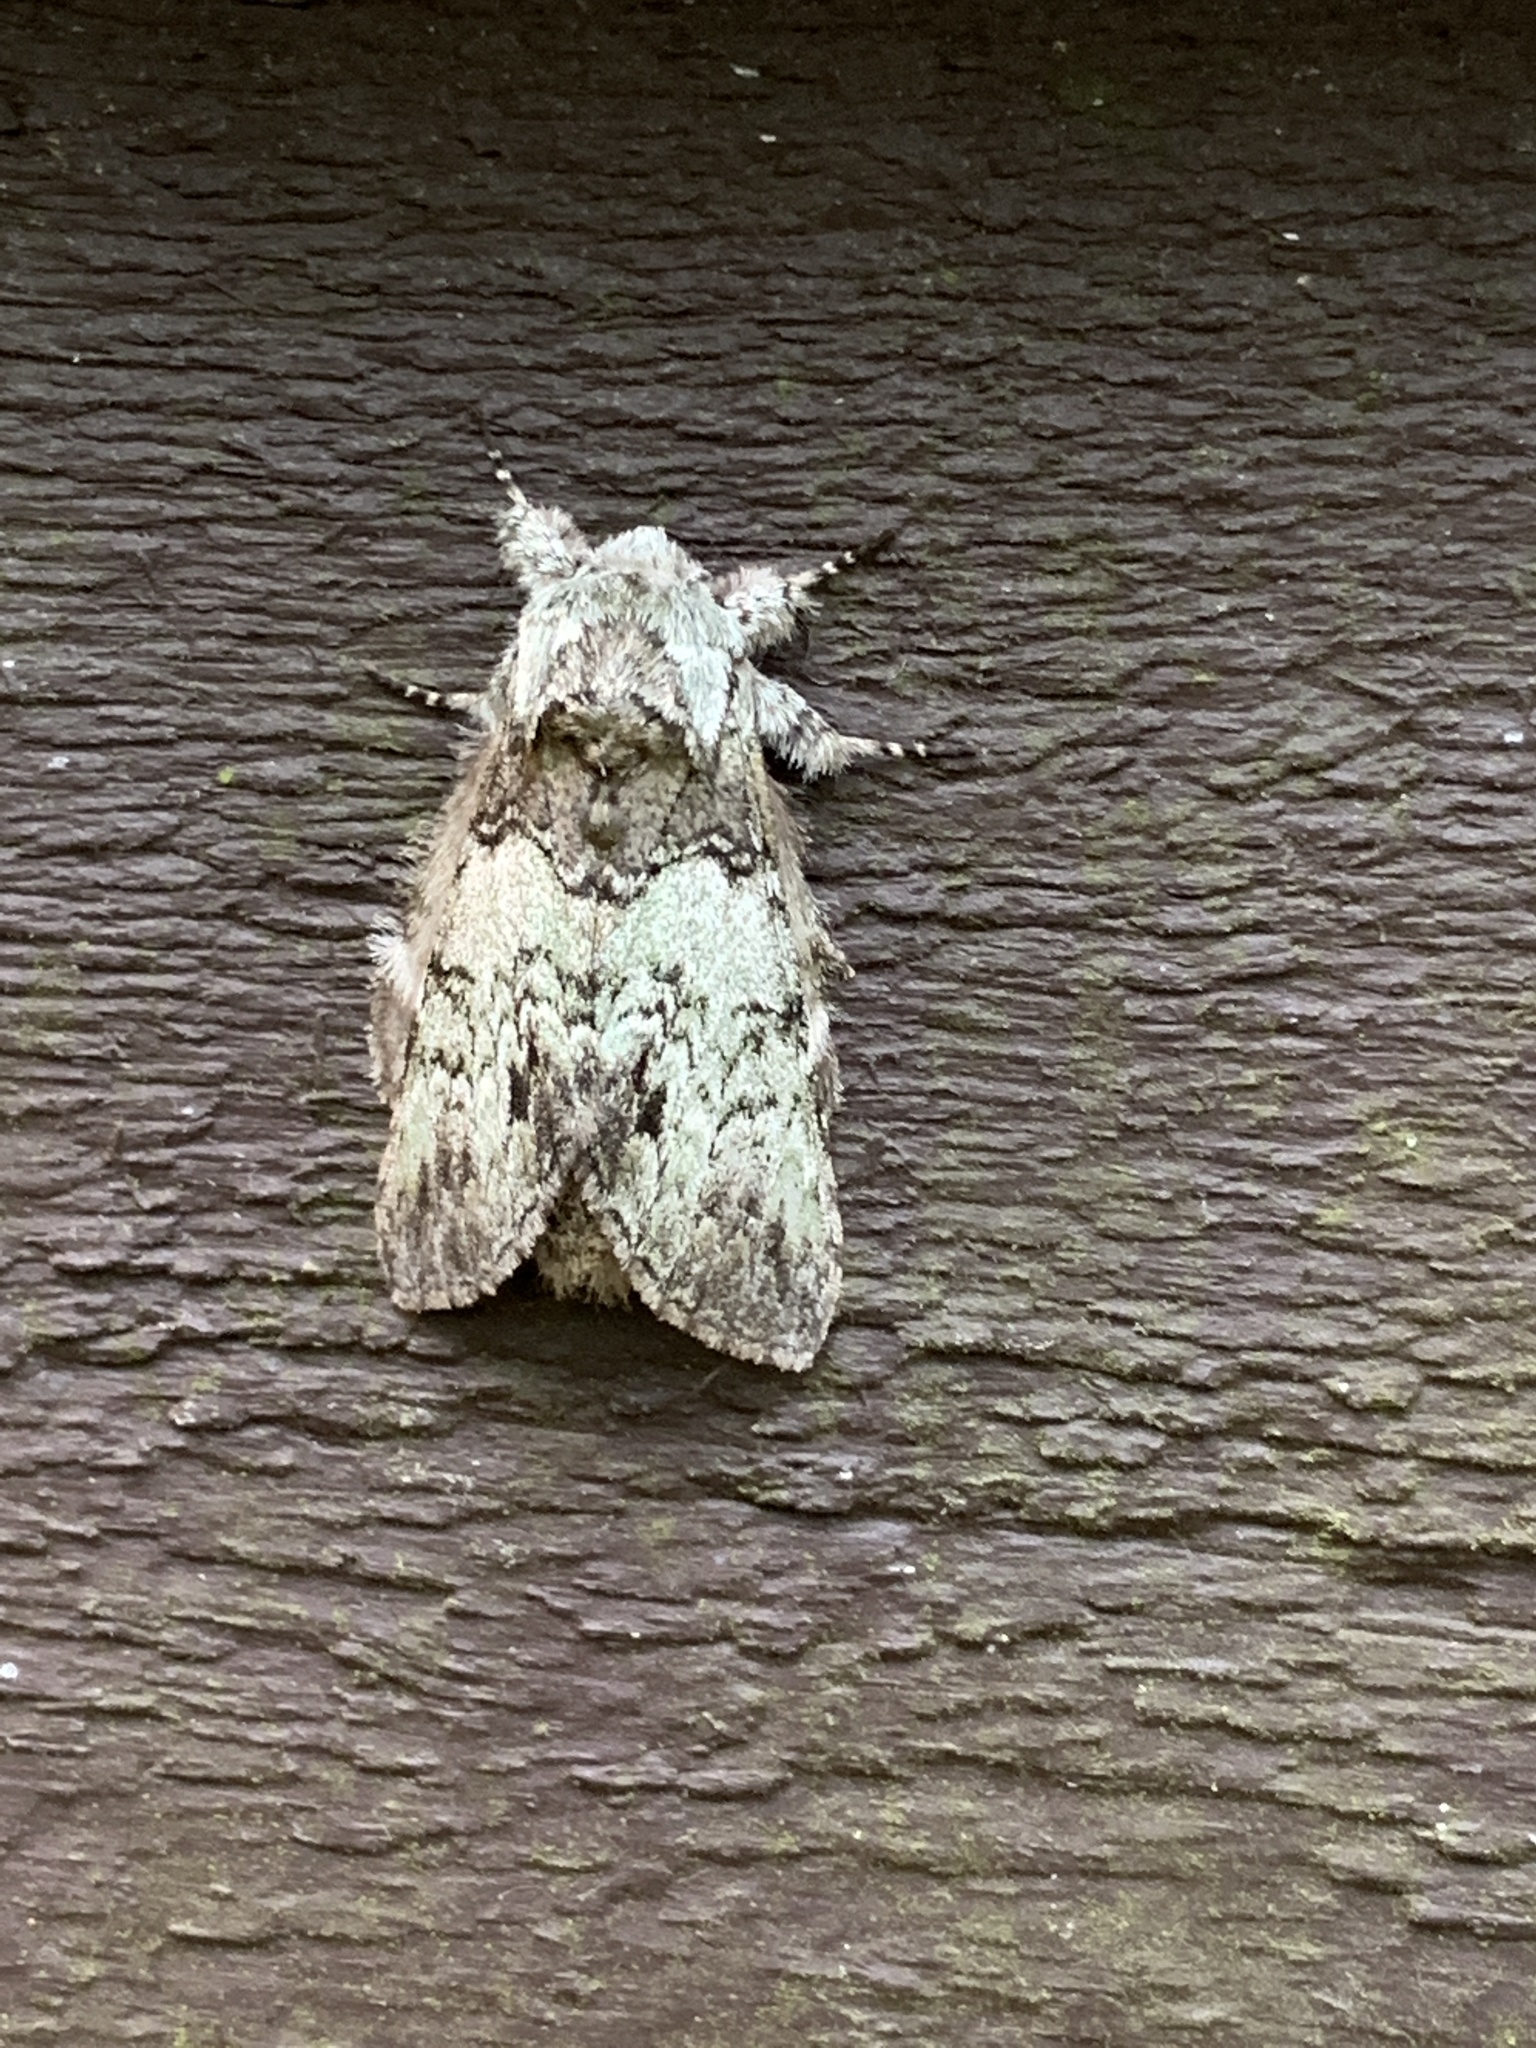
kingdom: Animalia
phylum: Arthropoda
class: Insecta
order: Lepidoptera
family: Notodontidae
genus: Macrurocampa
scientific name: Macrurocampa marthesia
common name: Mottled prominent
